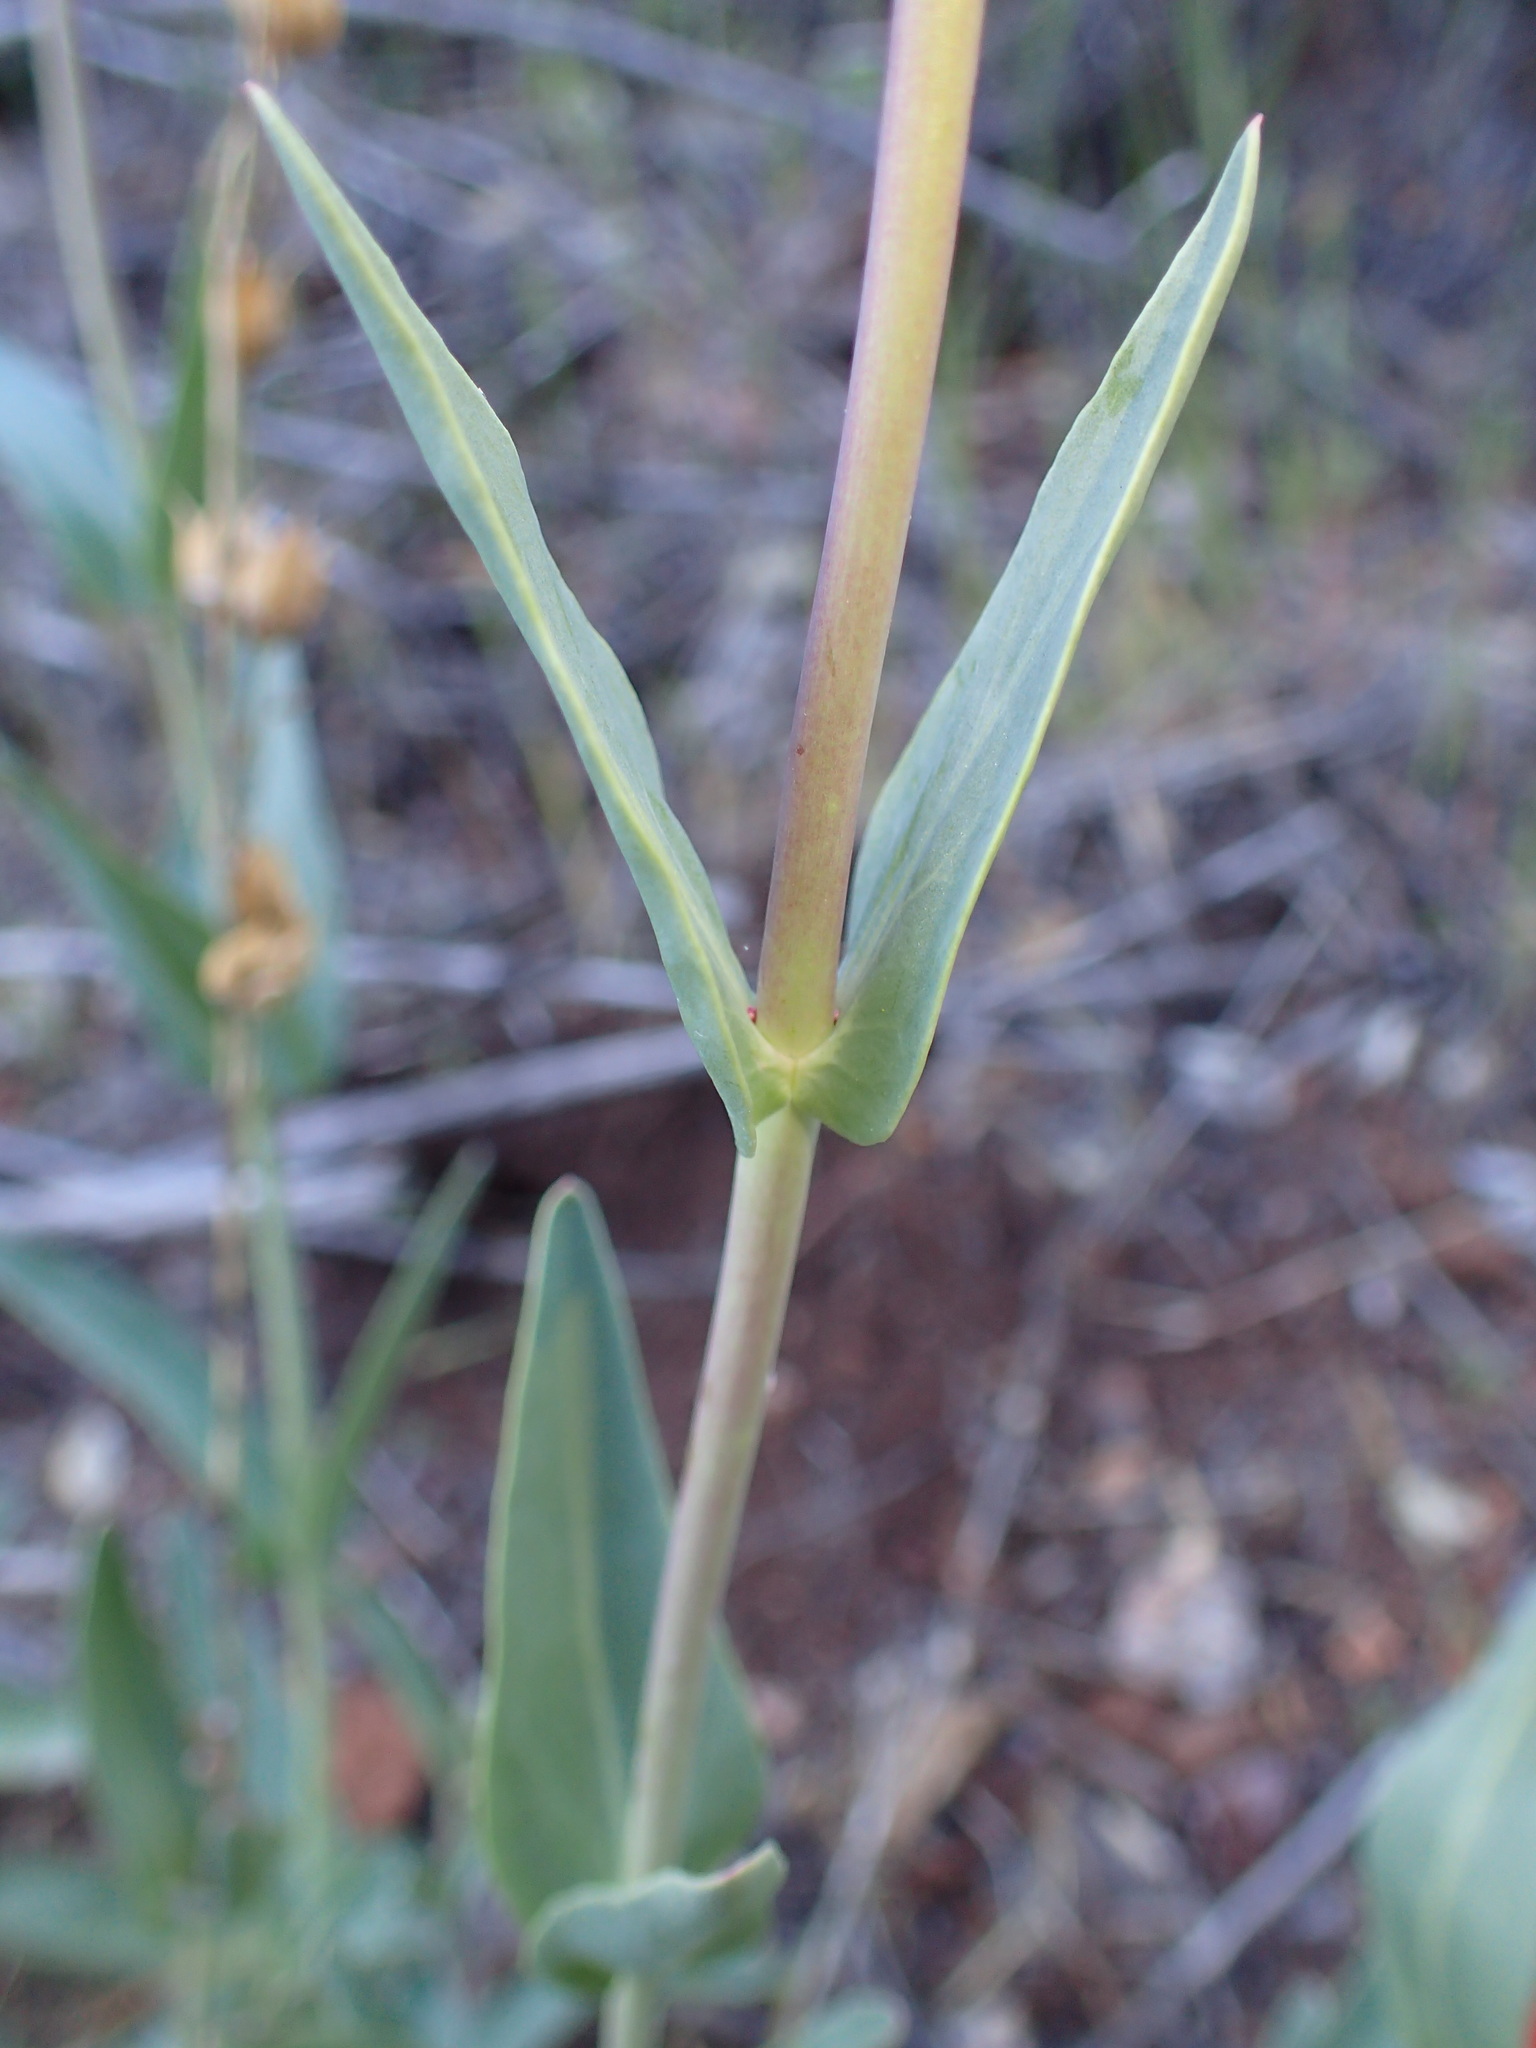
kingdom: Plantae
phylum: Tracheophyta
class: Magnoliopsida
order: Lamiales
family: Plantaginaceae
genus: Penstemon
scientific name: Penstemon centranthifolius
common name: Scarlet bugler
